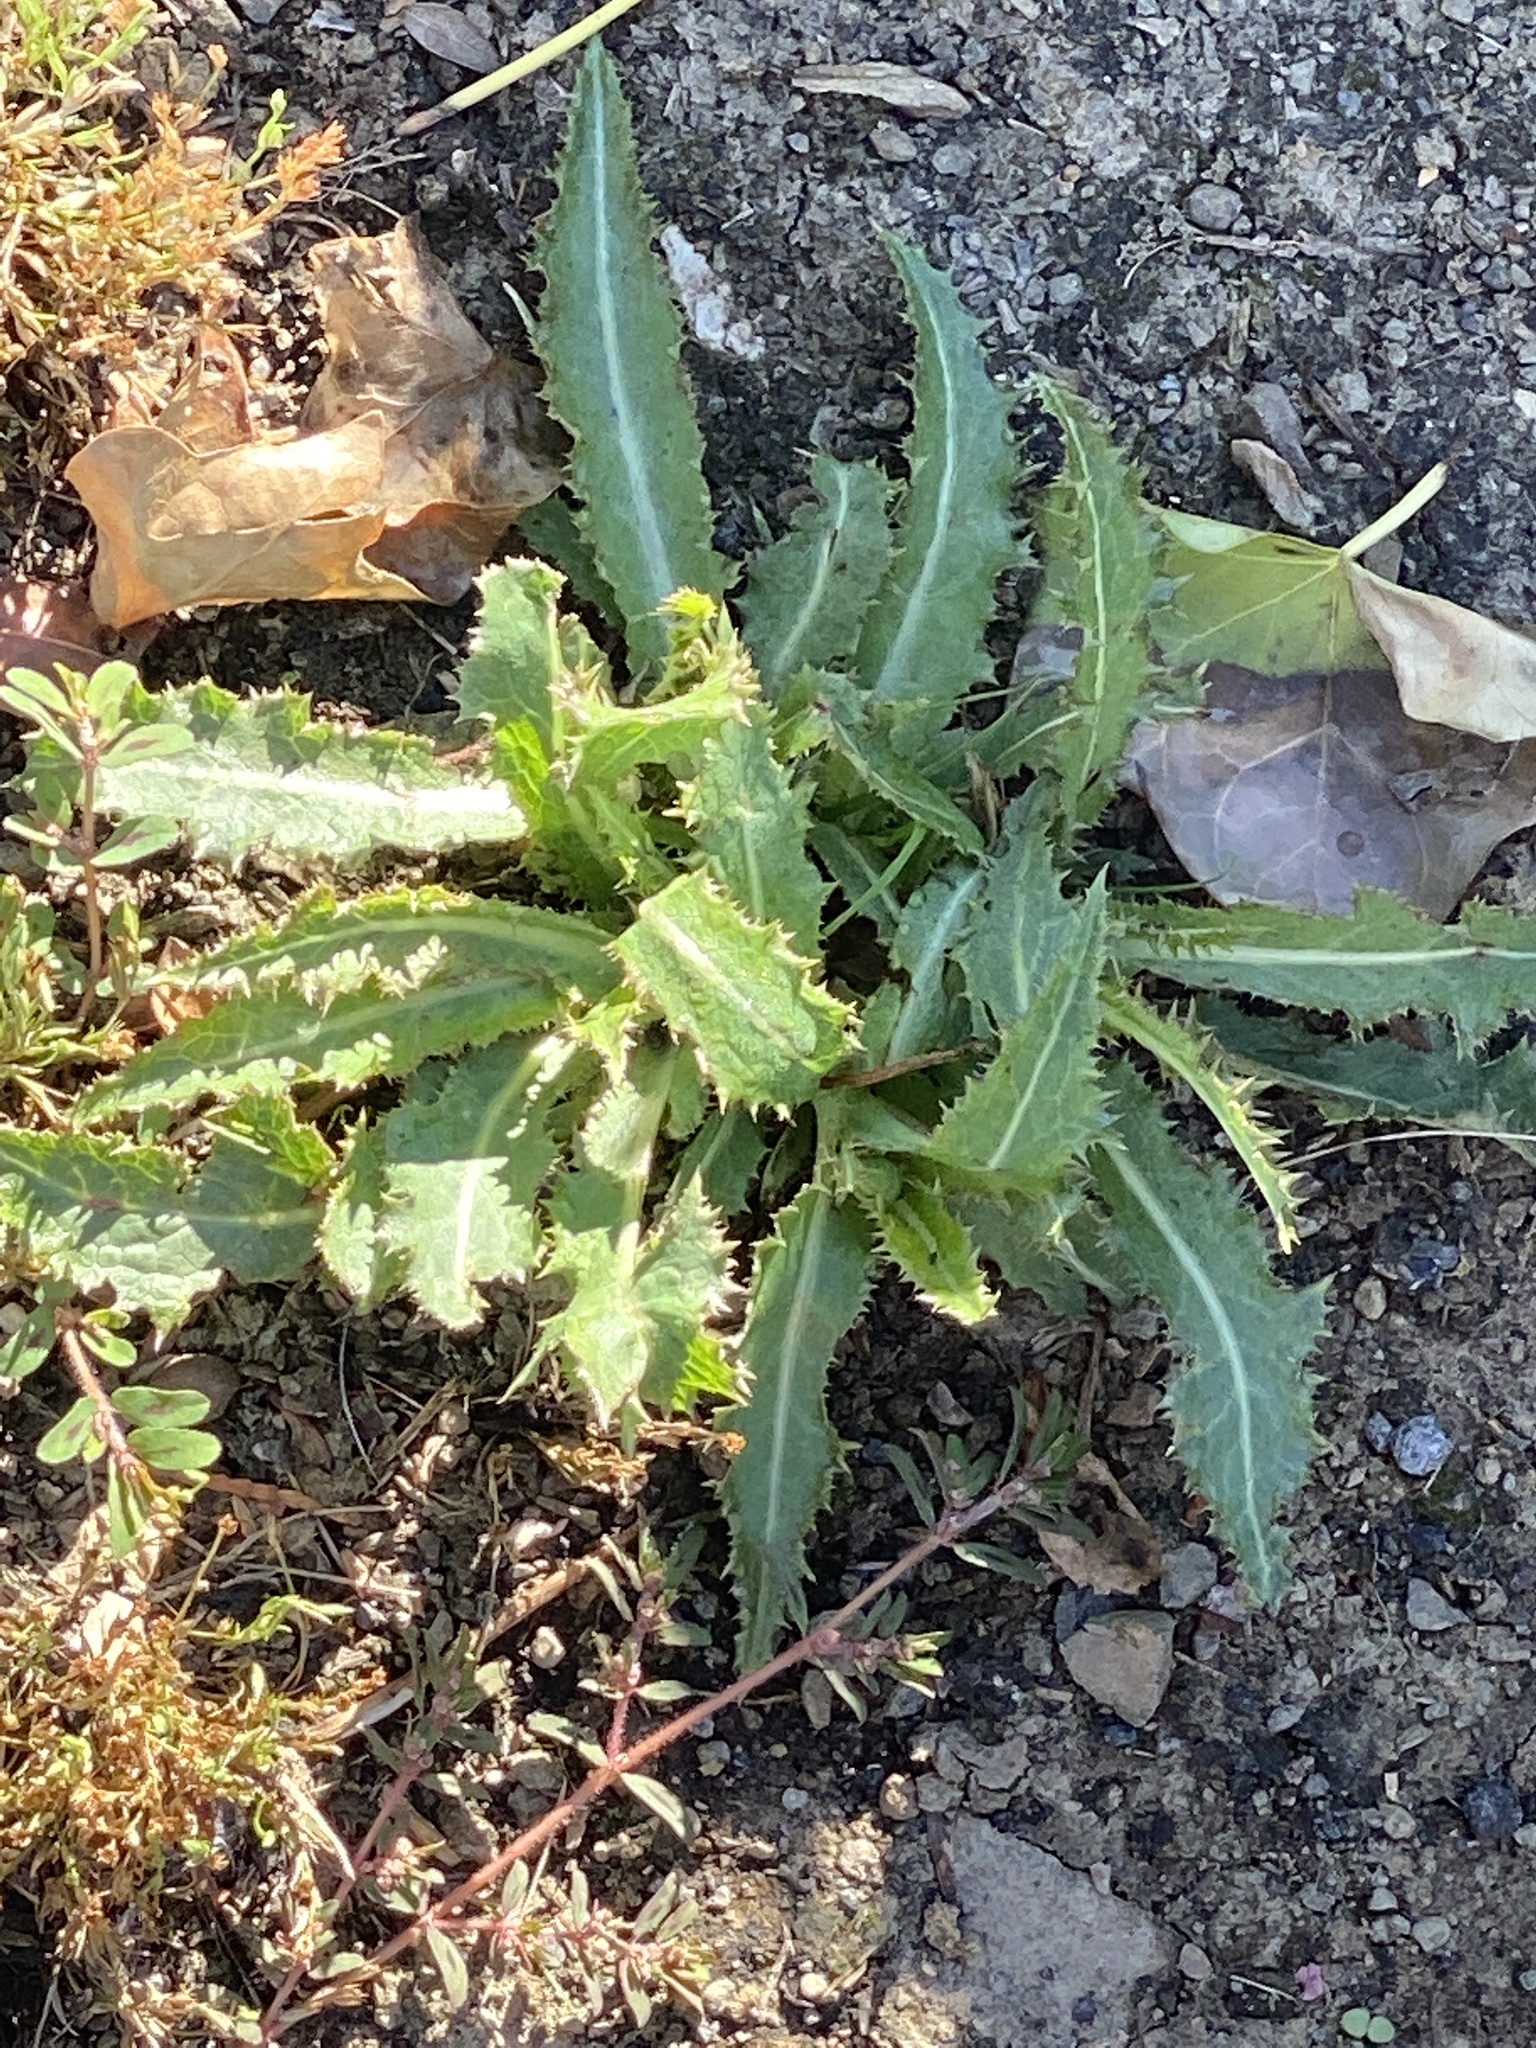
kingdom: Plantae
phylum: Tracheophyta
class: Magnoliopsida
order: Asterales
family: Asteraceae
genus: Sonchus
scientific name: Sonchus asper
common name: Prickly sow-thistle
